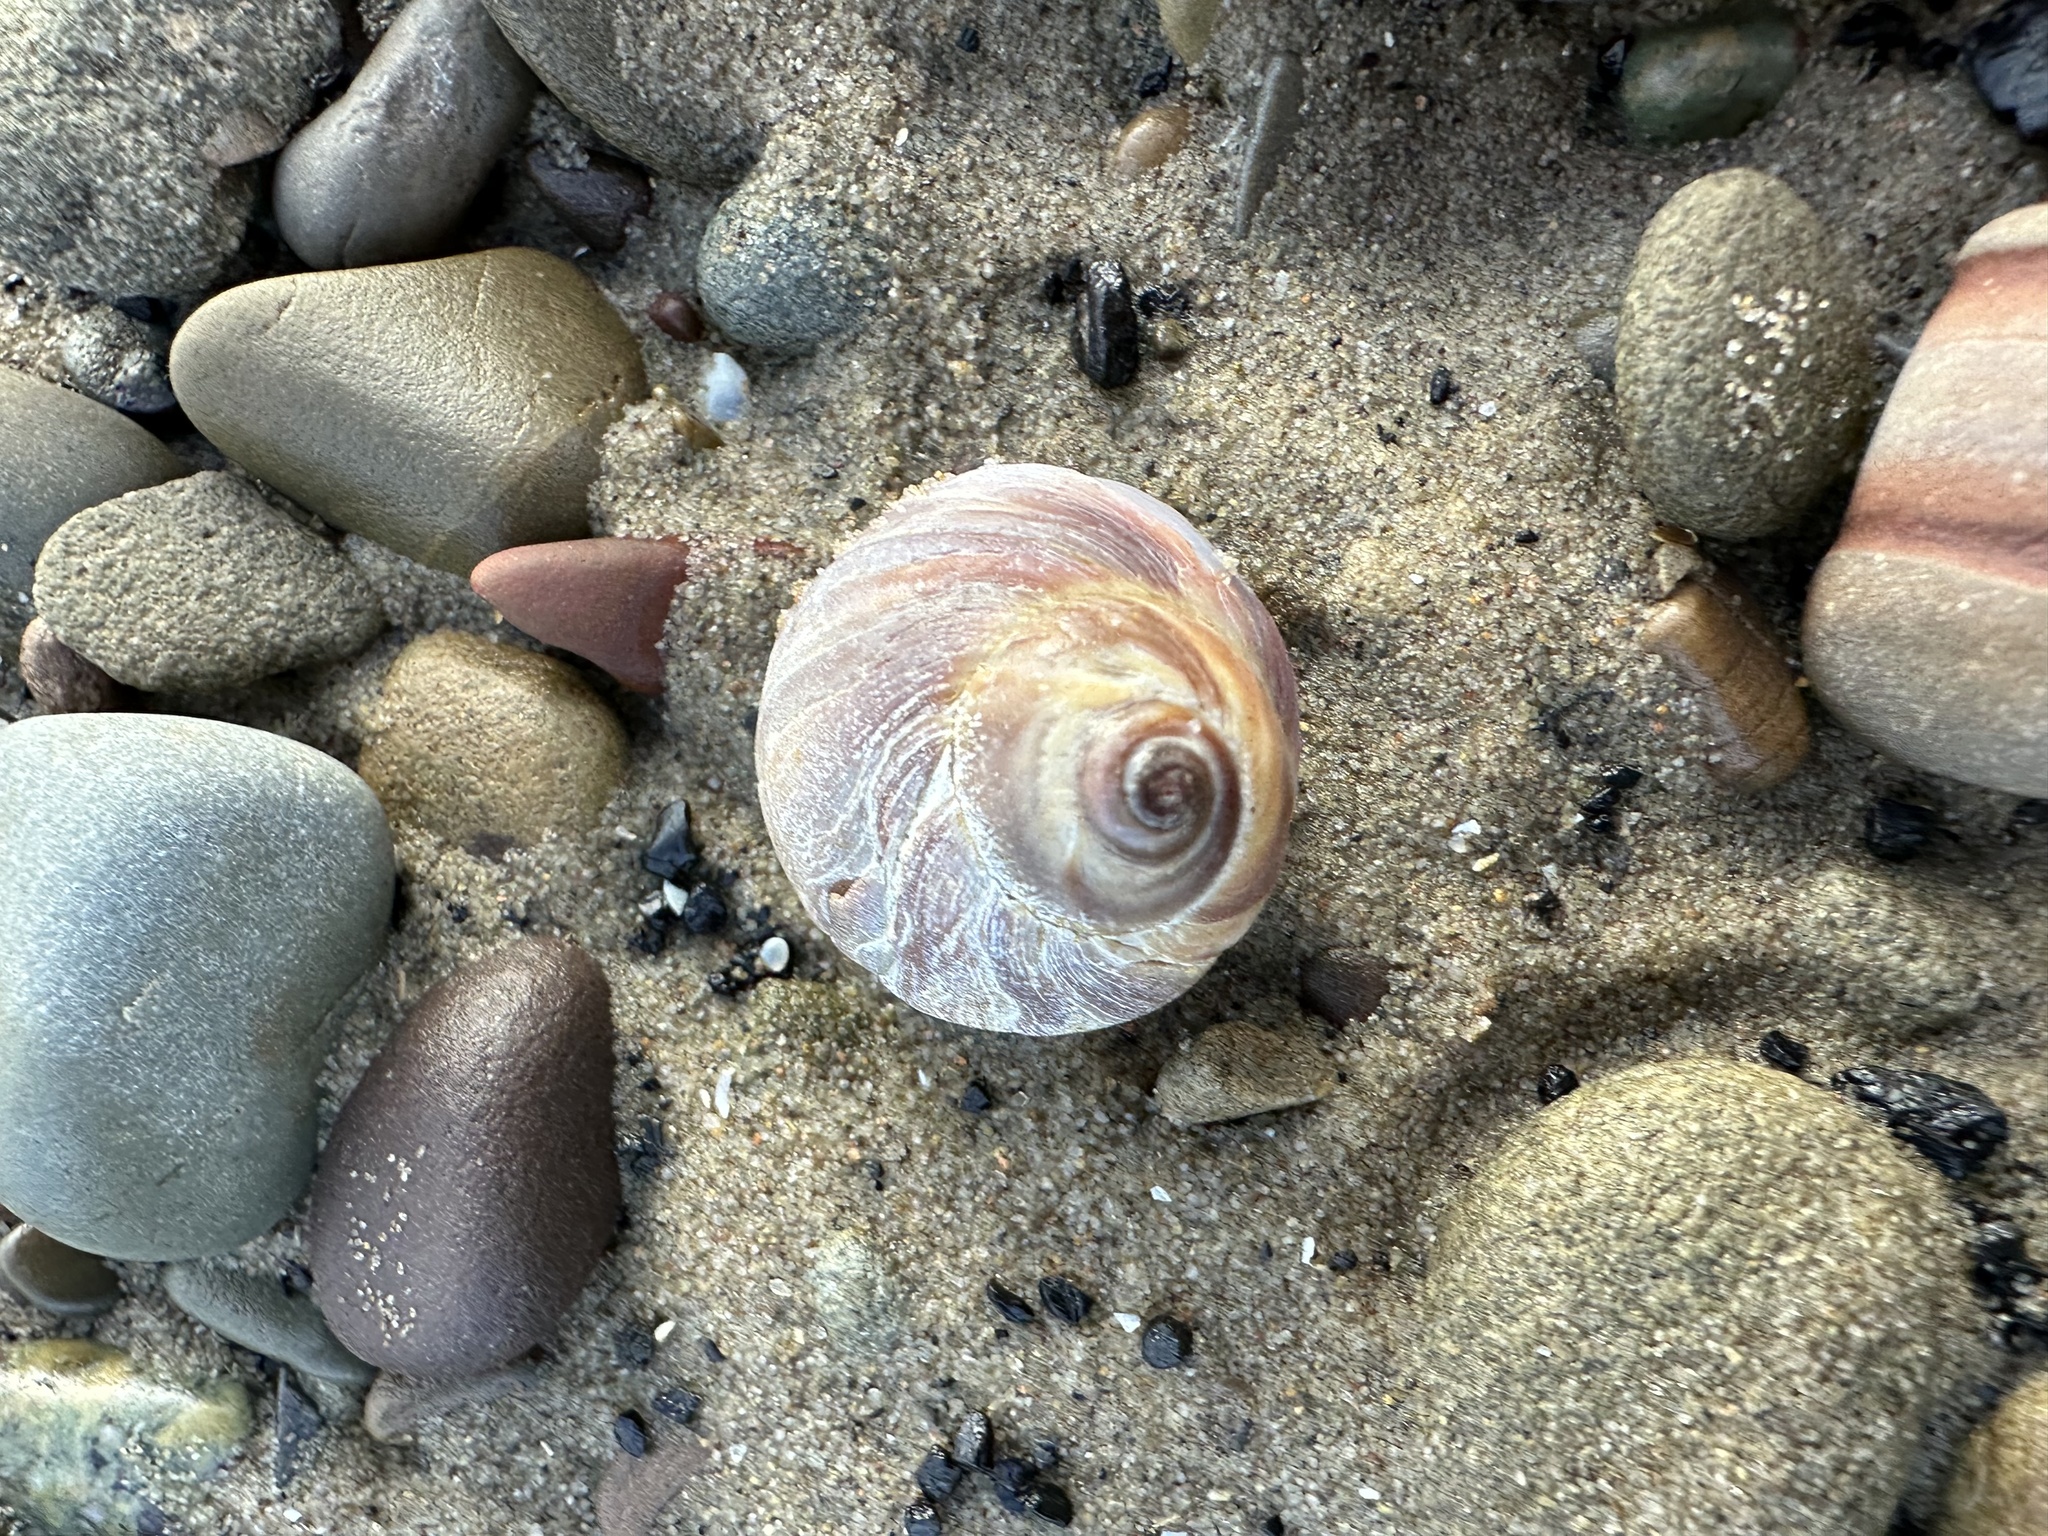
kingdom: Animalia
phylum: Mollusca
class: Gastropoda
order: Littorinimorpha
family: Naticidae
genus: Euspira
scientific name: Euspira heros
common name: Common northern moonsnail
